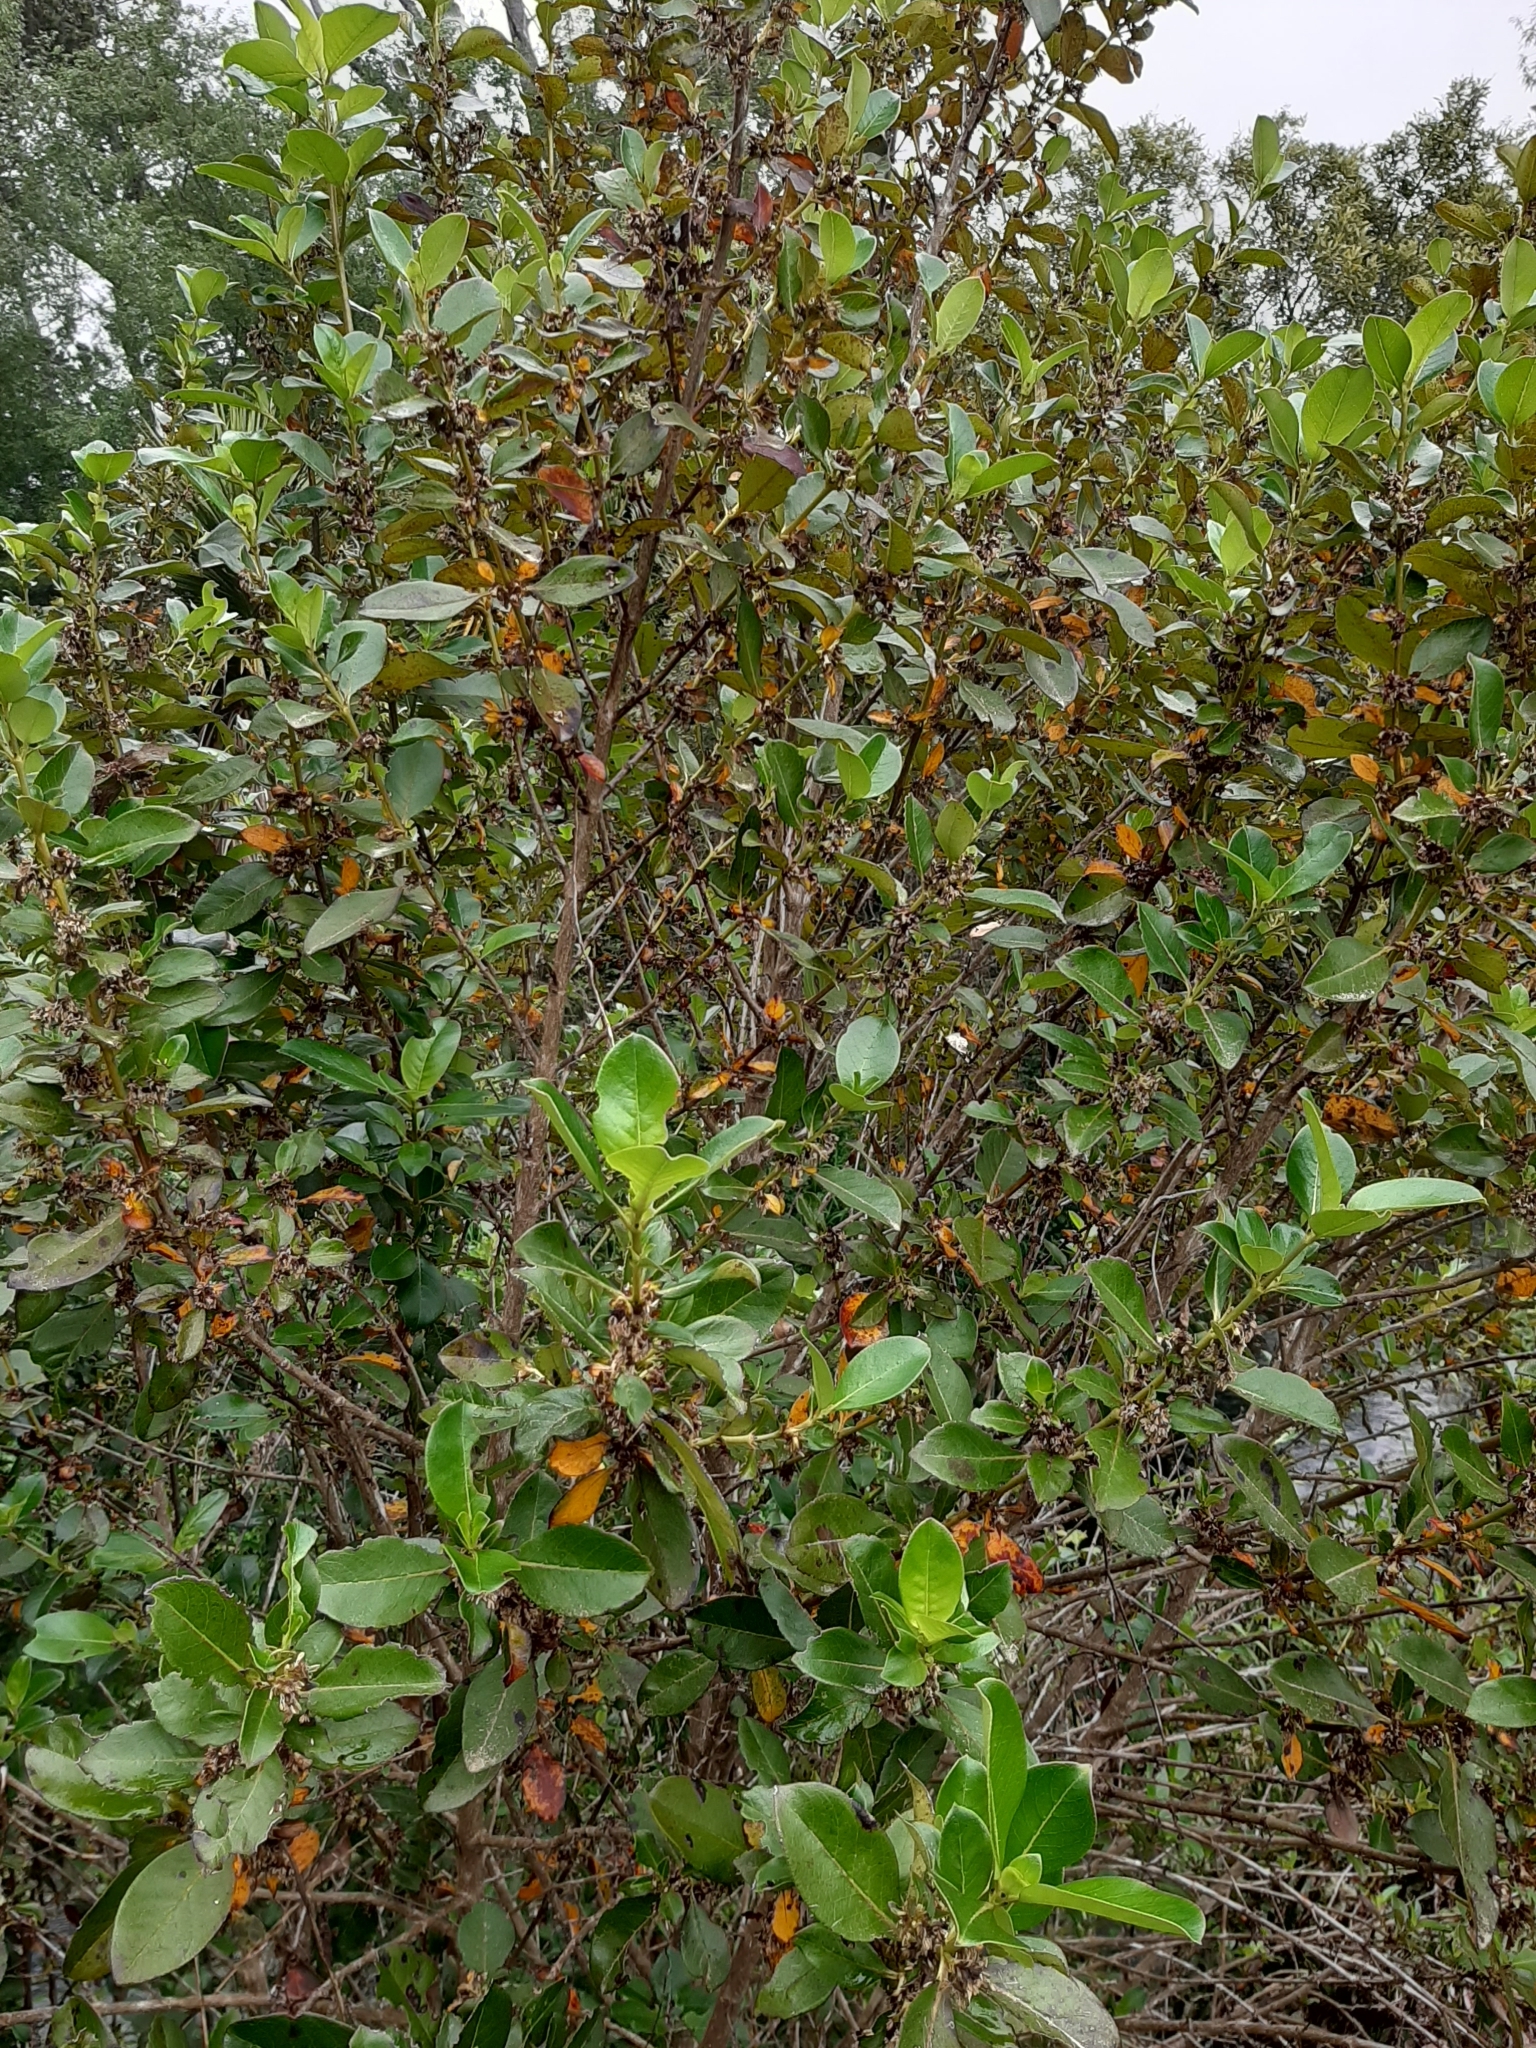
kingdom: Plantae
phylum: Tracheophyta
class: Magnoliopsida
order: Gentianales
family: Rubiaceae
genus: Coprosma
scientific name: Coprosma robusta
